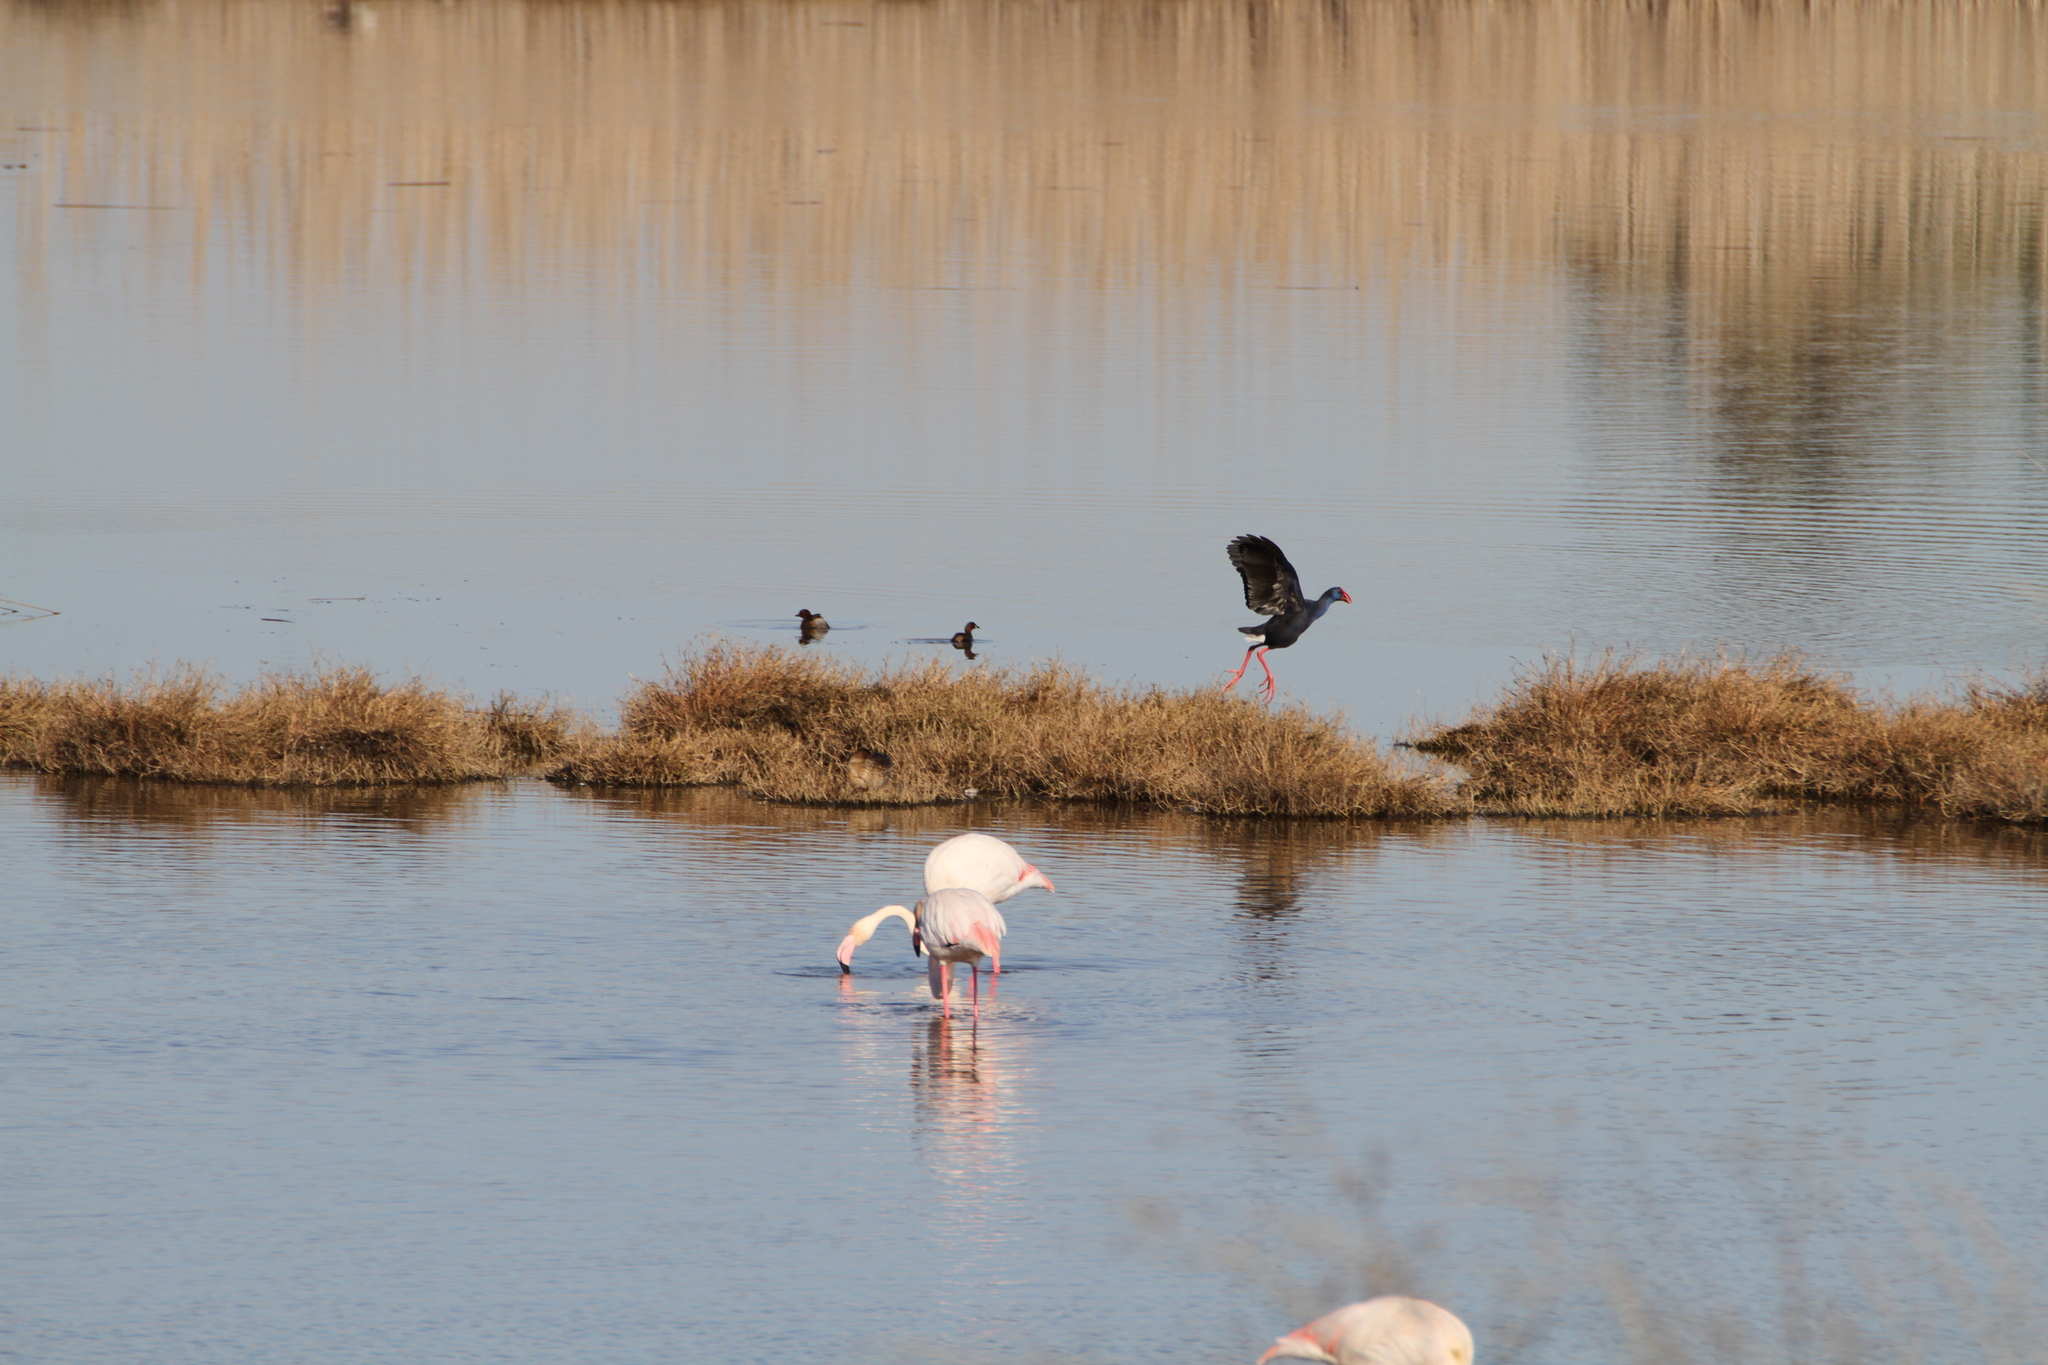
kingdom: Animalia
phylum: Chordata
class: Aves
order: Gruiformes
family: Rallidae
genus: Porphyrio
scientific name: Porphyrio porphyrio
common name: Purple swamphen
